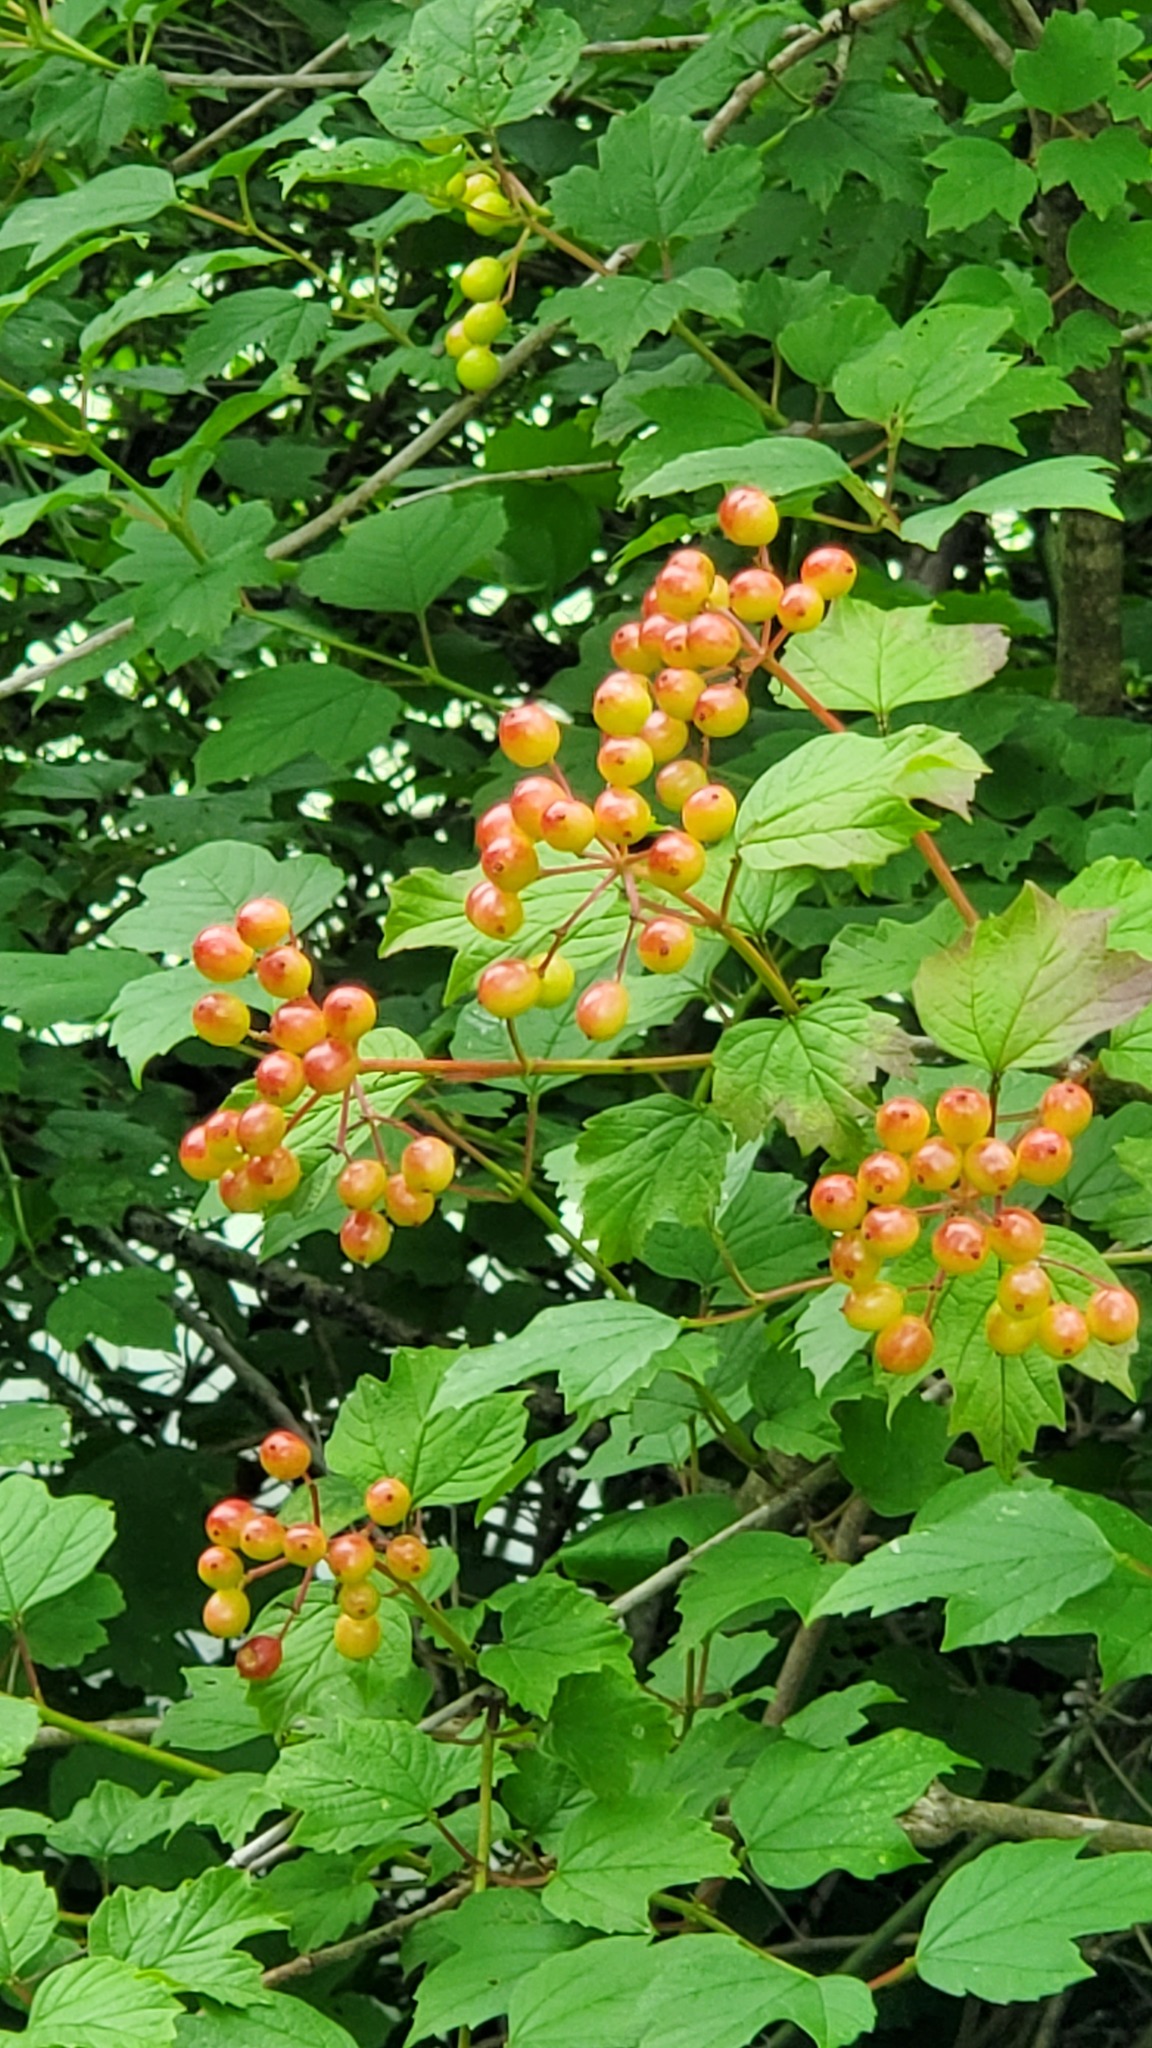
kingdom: Plantae
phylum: Tracheophyta
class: Magnoliopsida
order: Dipsacales
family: Viburnaceae
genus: Viburnum
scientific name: Viburnum opulus
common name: Guelder-rose
